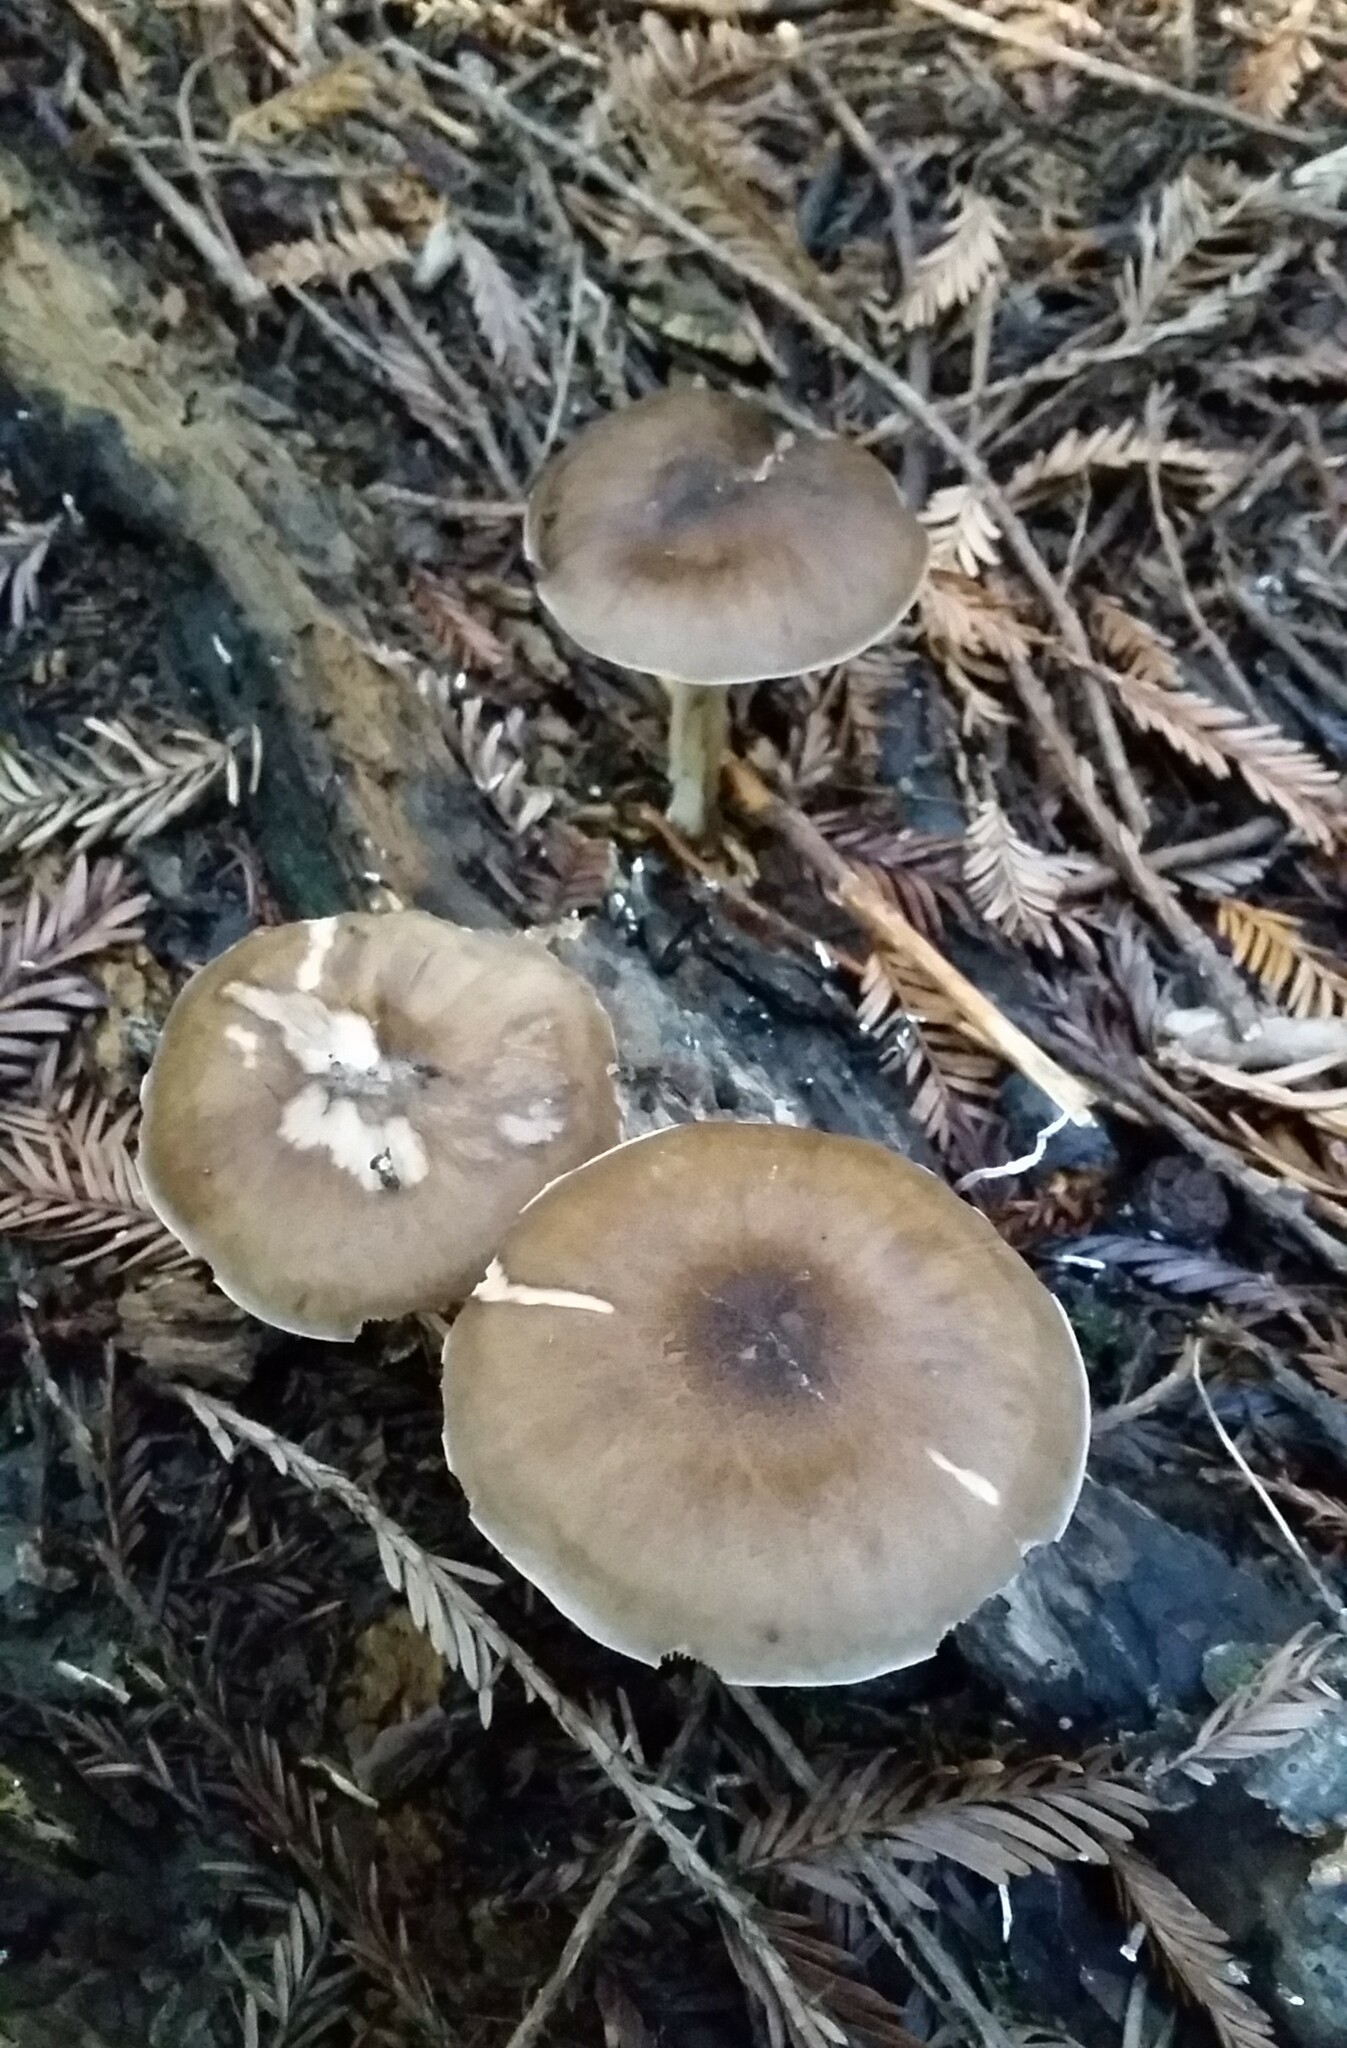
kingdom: Fungi
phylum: Basidiomycota
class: Agaricomycetes
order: Agaricales
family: Pluteaceae
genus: Pluteus
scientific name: Pluteus exilis
